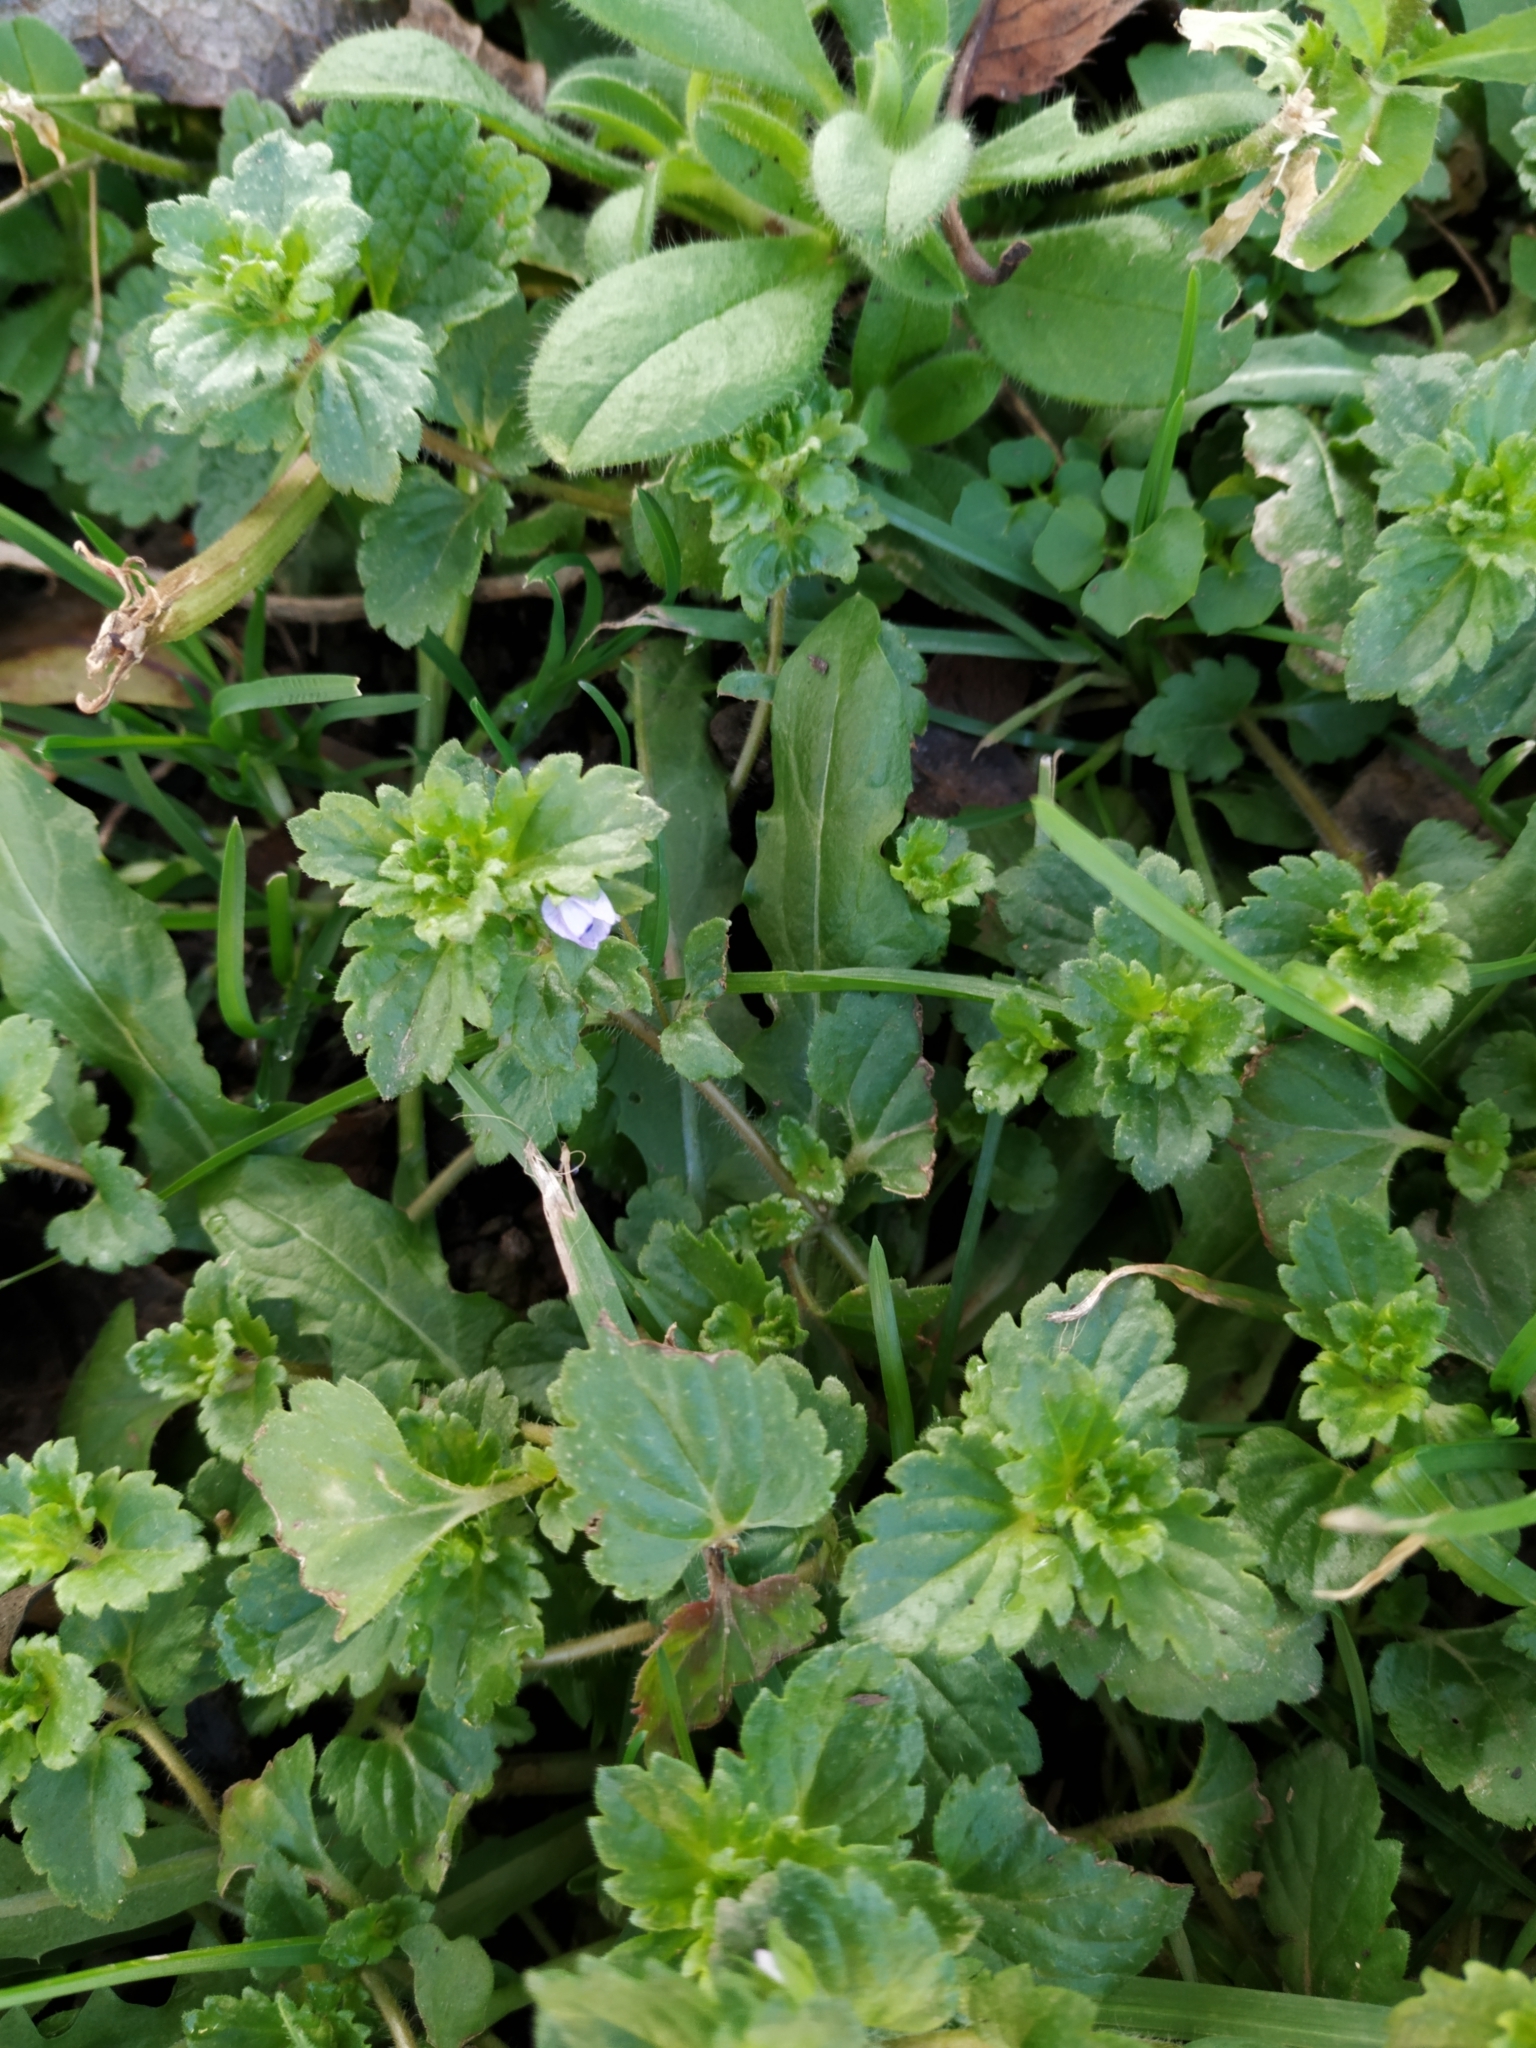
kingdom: Plantae
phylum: Tracheophyta
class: Magnoliopsida
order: Lamiales
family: Plantaginaceae
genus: Veronica
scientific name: Veronica persica
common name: Common field-speedwell
